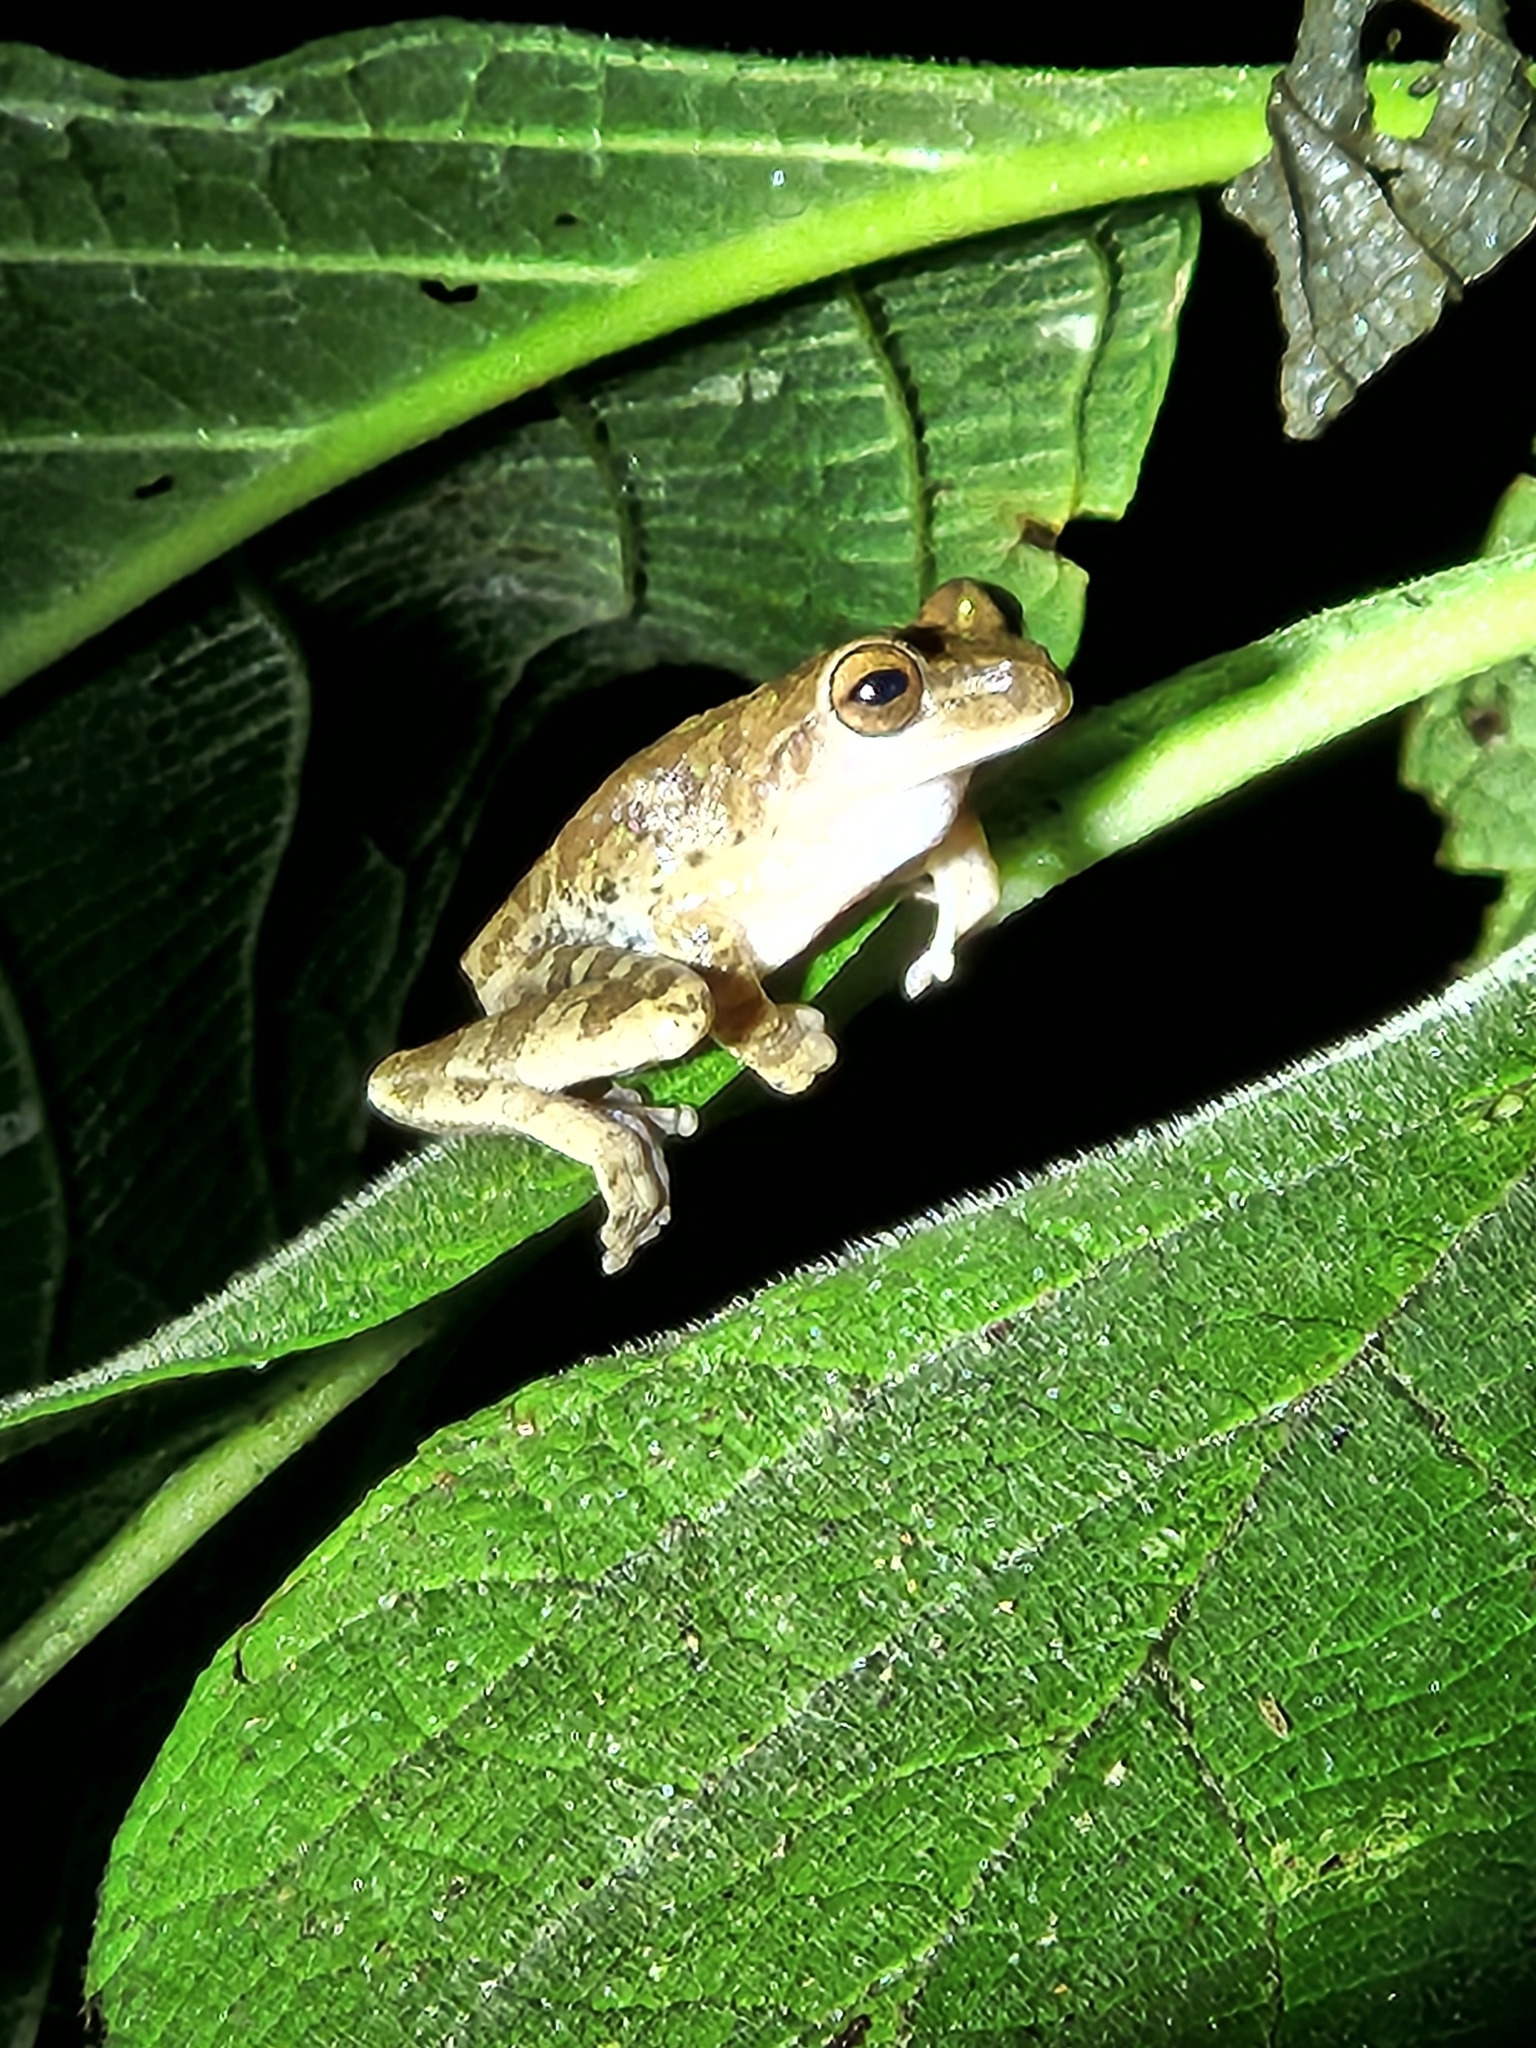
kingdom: Animalia
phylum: Chordata
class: Amphibia
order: Anura
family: Hylidae
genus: Smilisca
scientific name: Smilisca sila
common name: Panama cross-banded treefrog
